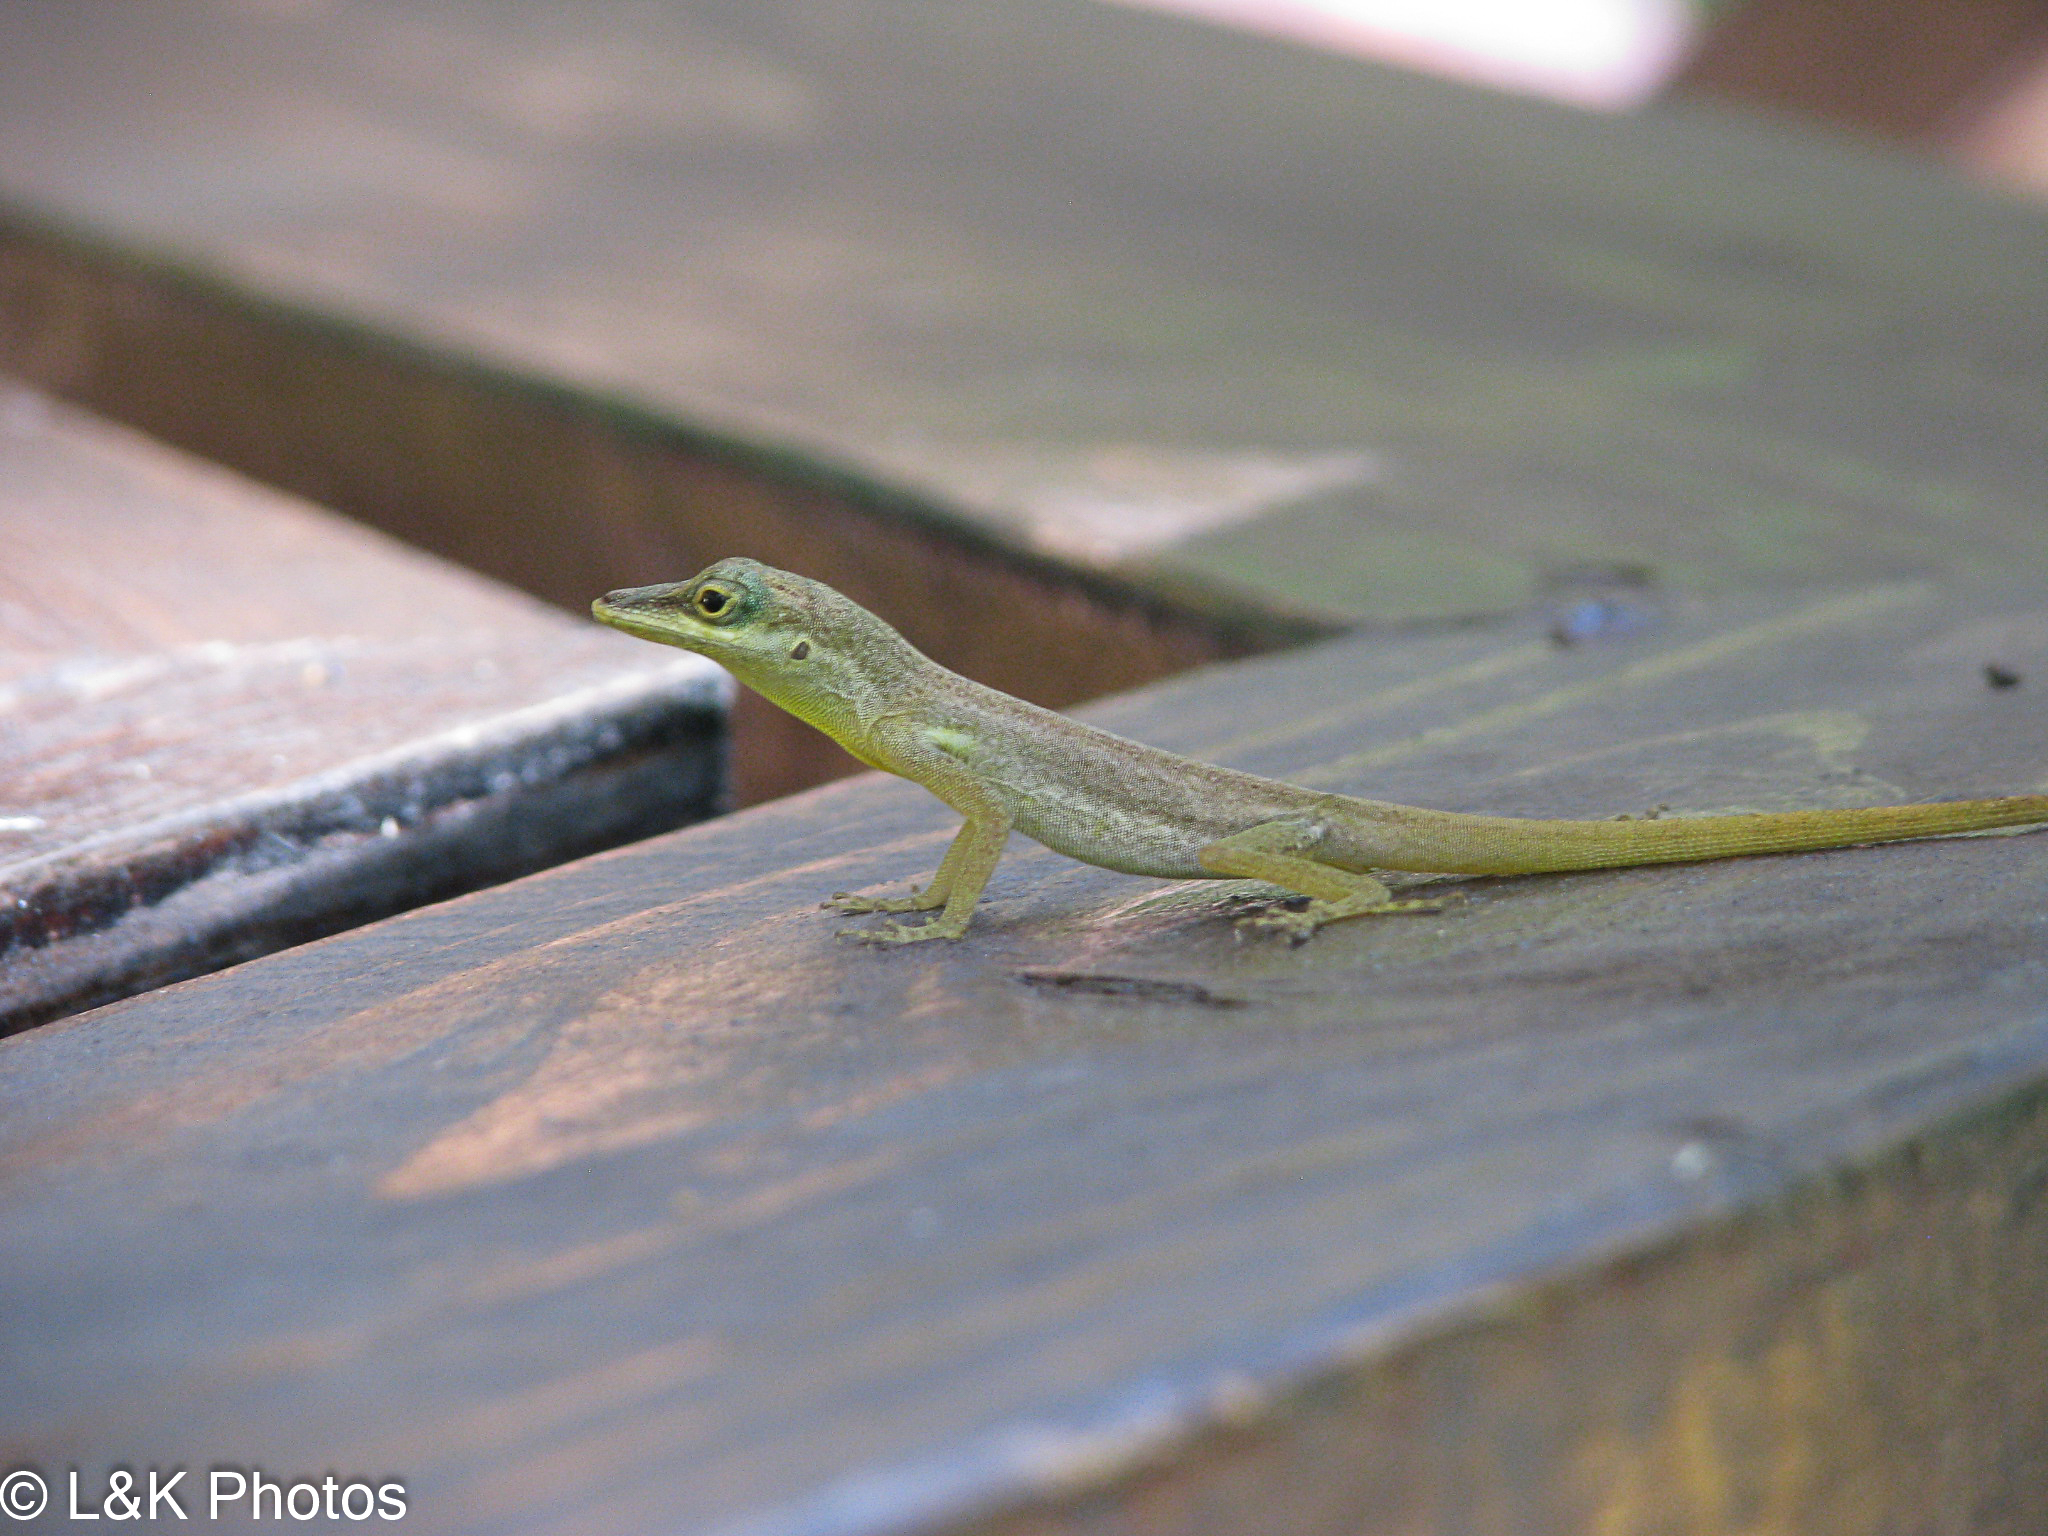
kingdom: Animalia
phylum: Chordata
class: Squamata
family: Dactyloidae
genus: Anolis
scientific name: Anolis trinitatis
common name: Saint vincent's bush anole
